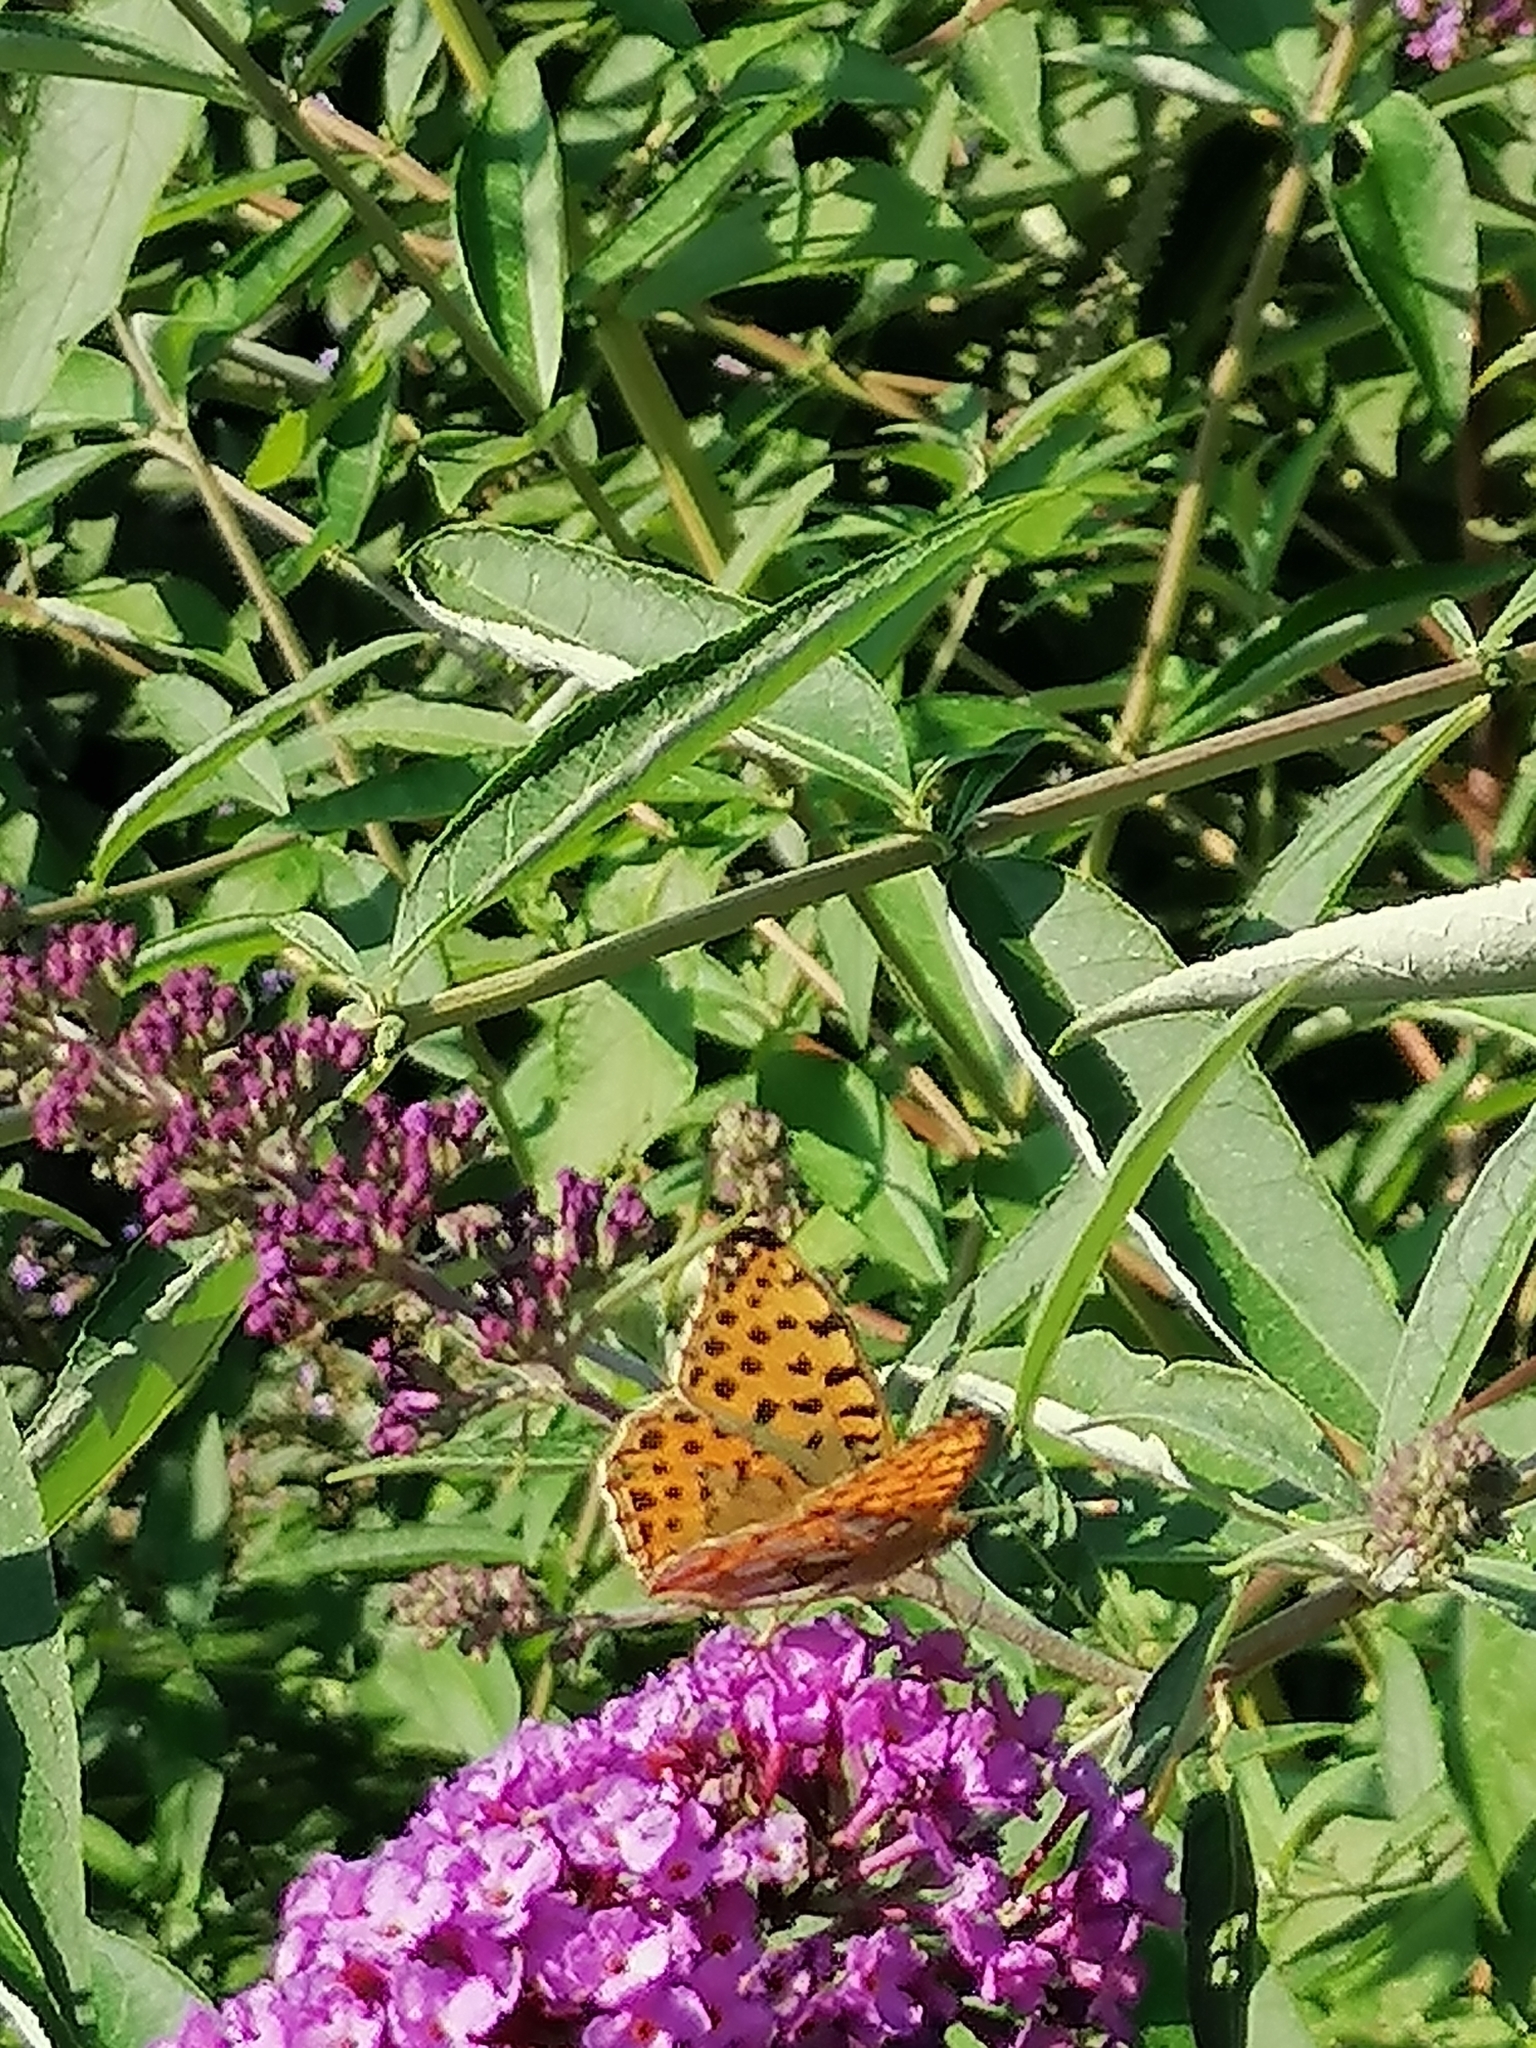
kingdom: Animalia
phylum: Arthropoda
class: Insecta
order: Lepidoptera
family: Nymphalidae
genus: Issoria
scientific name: Issoria lathonia
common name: Queen of spain fritillary
